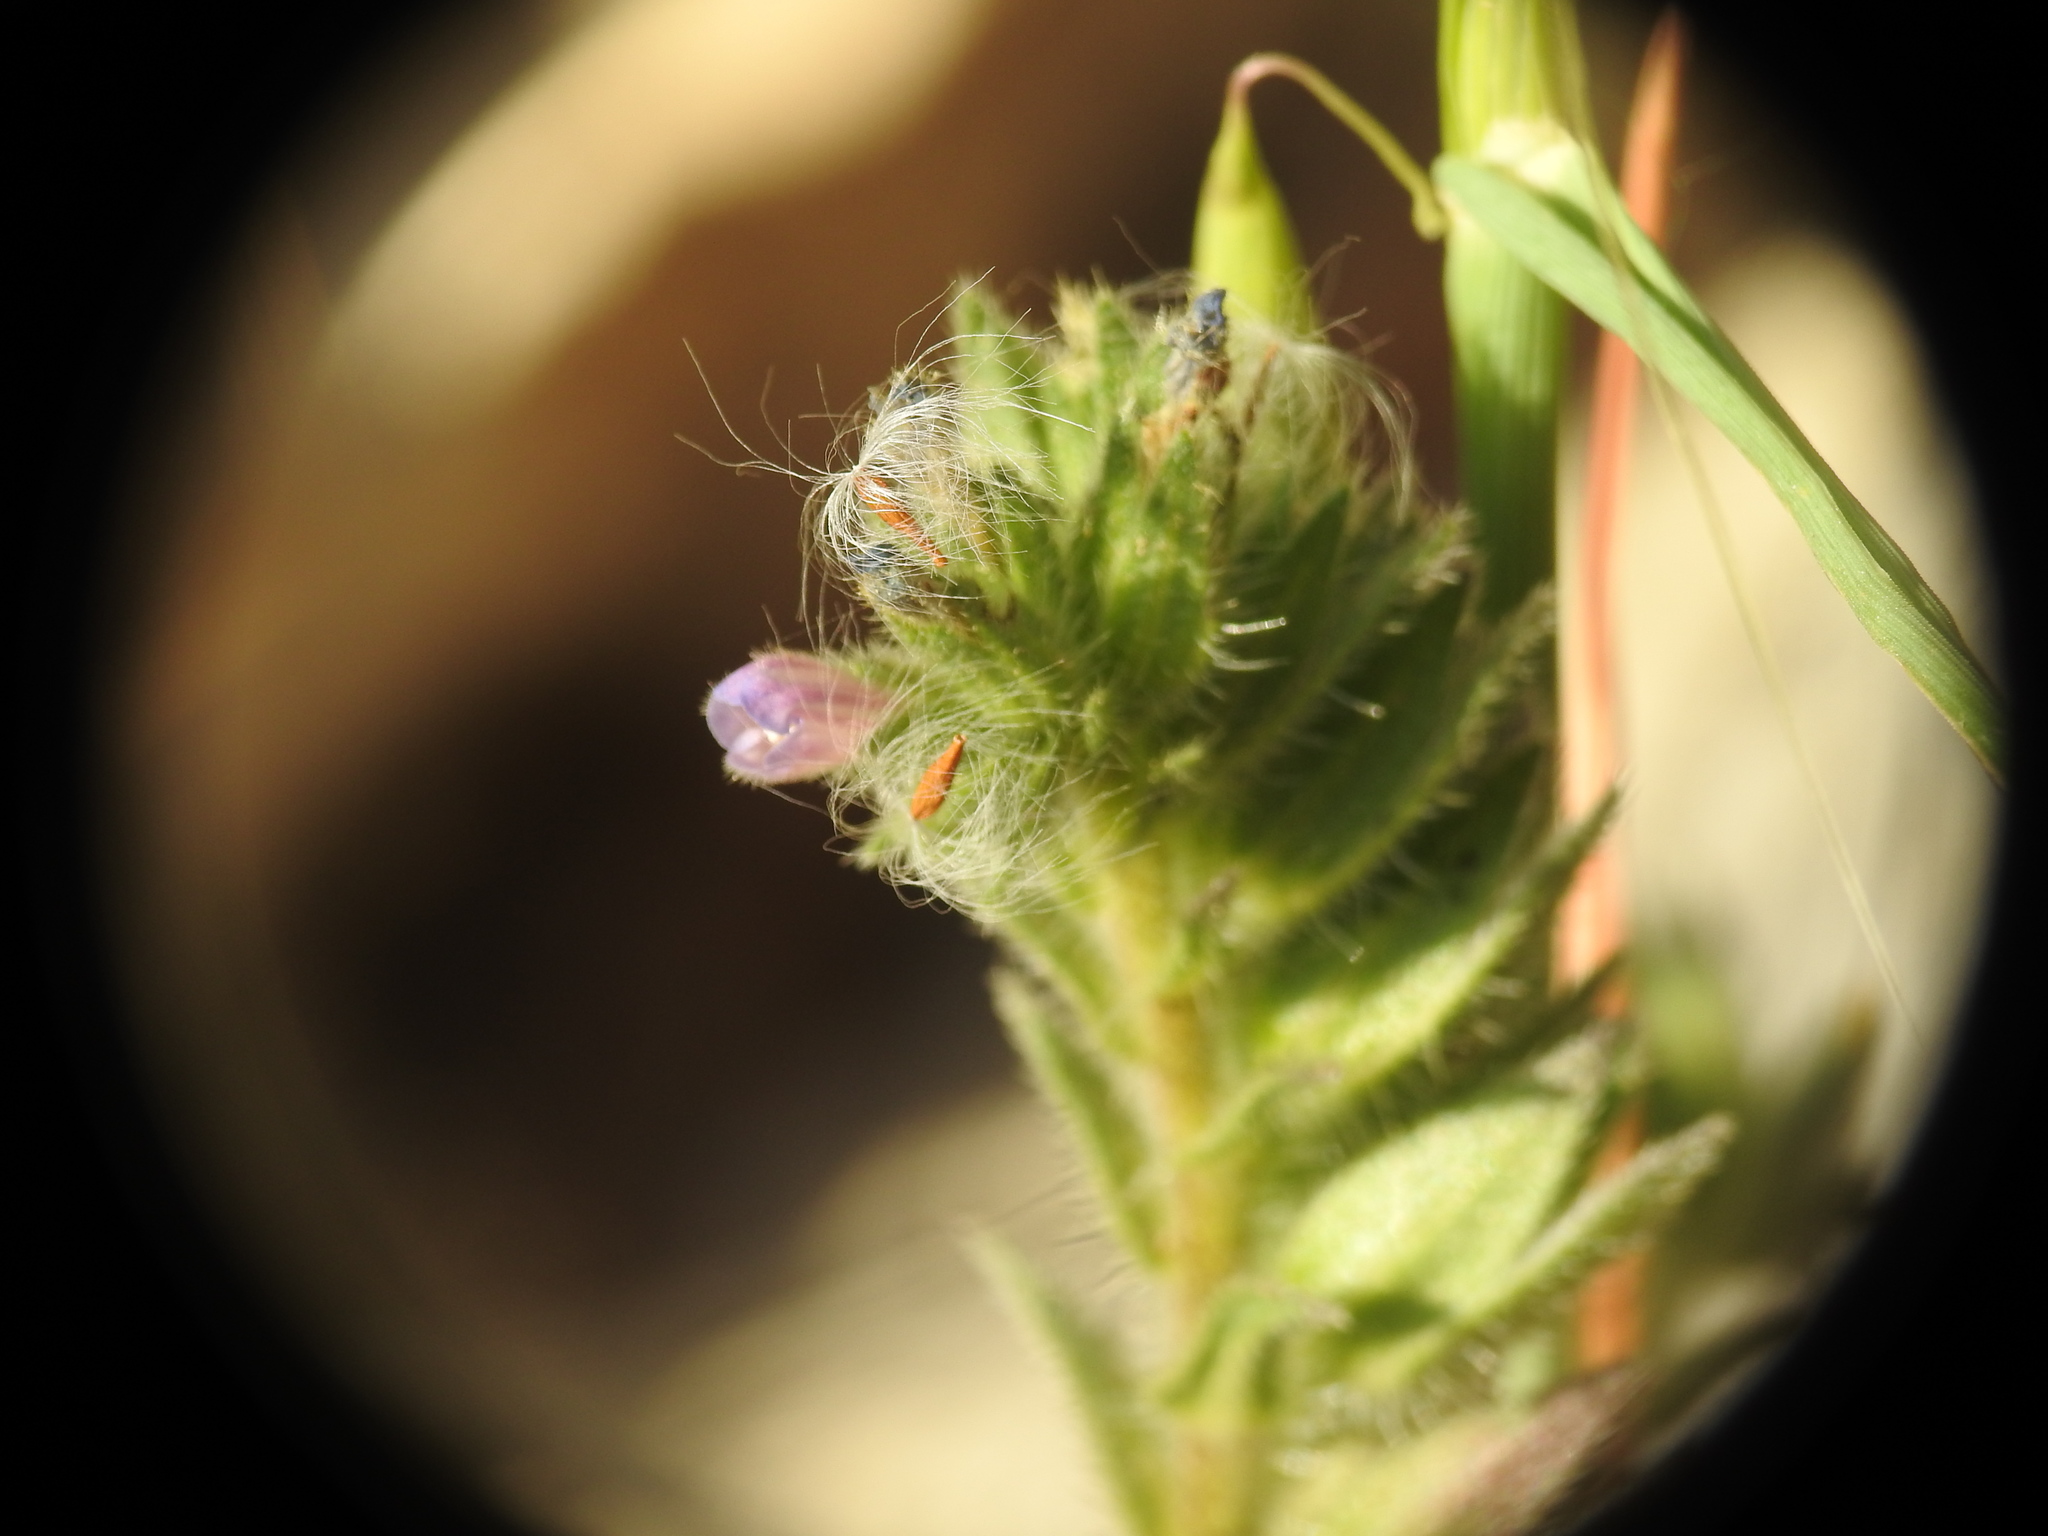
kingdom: Plantae
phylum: Tracheophyta
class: Magnoliopsida
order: Boraginales
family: Boraginaceae
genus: Echium
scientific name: Echium parviflorum
